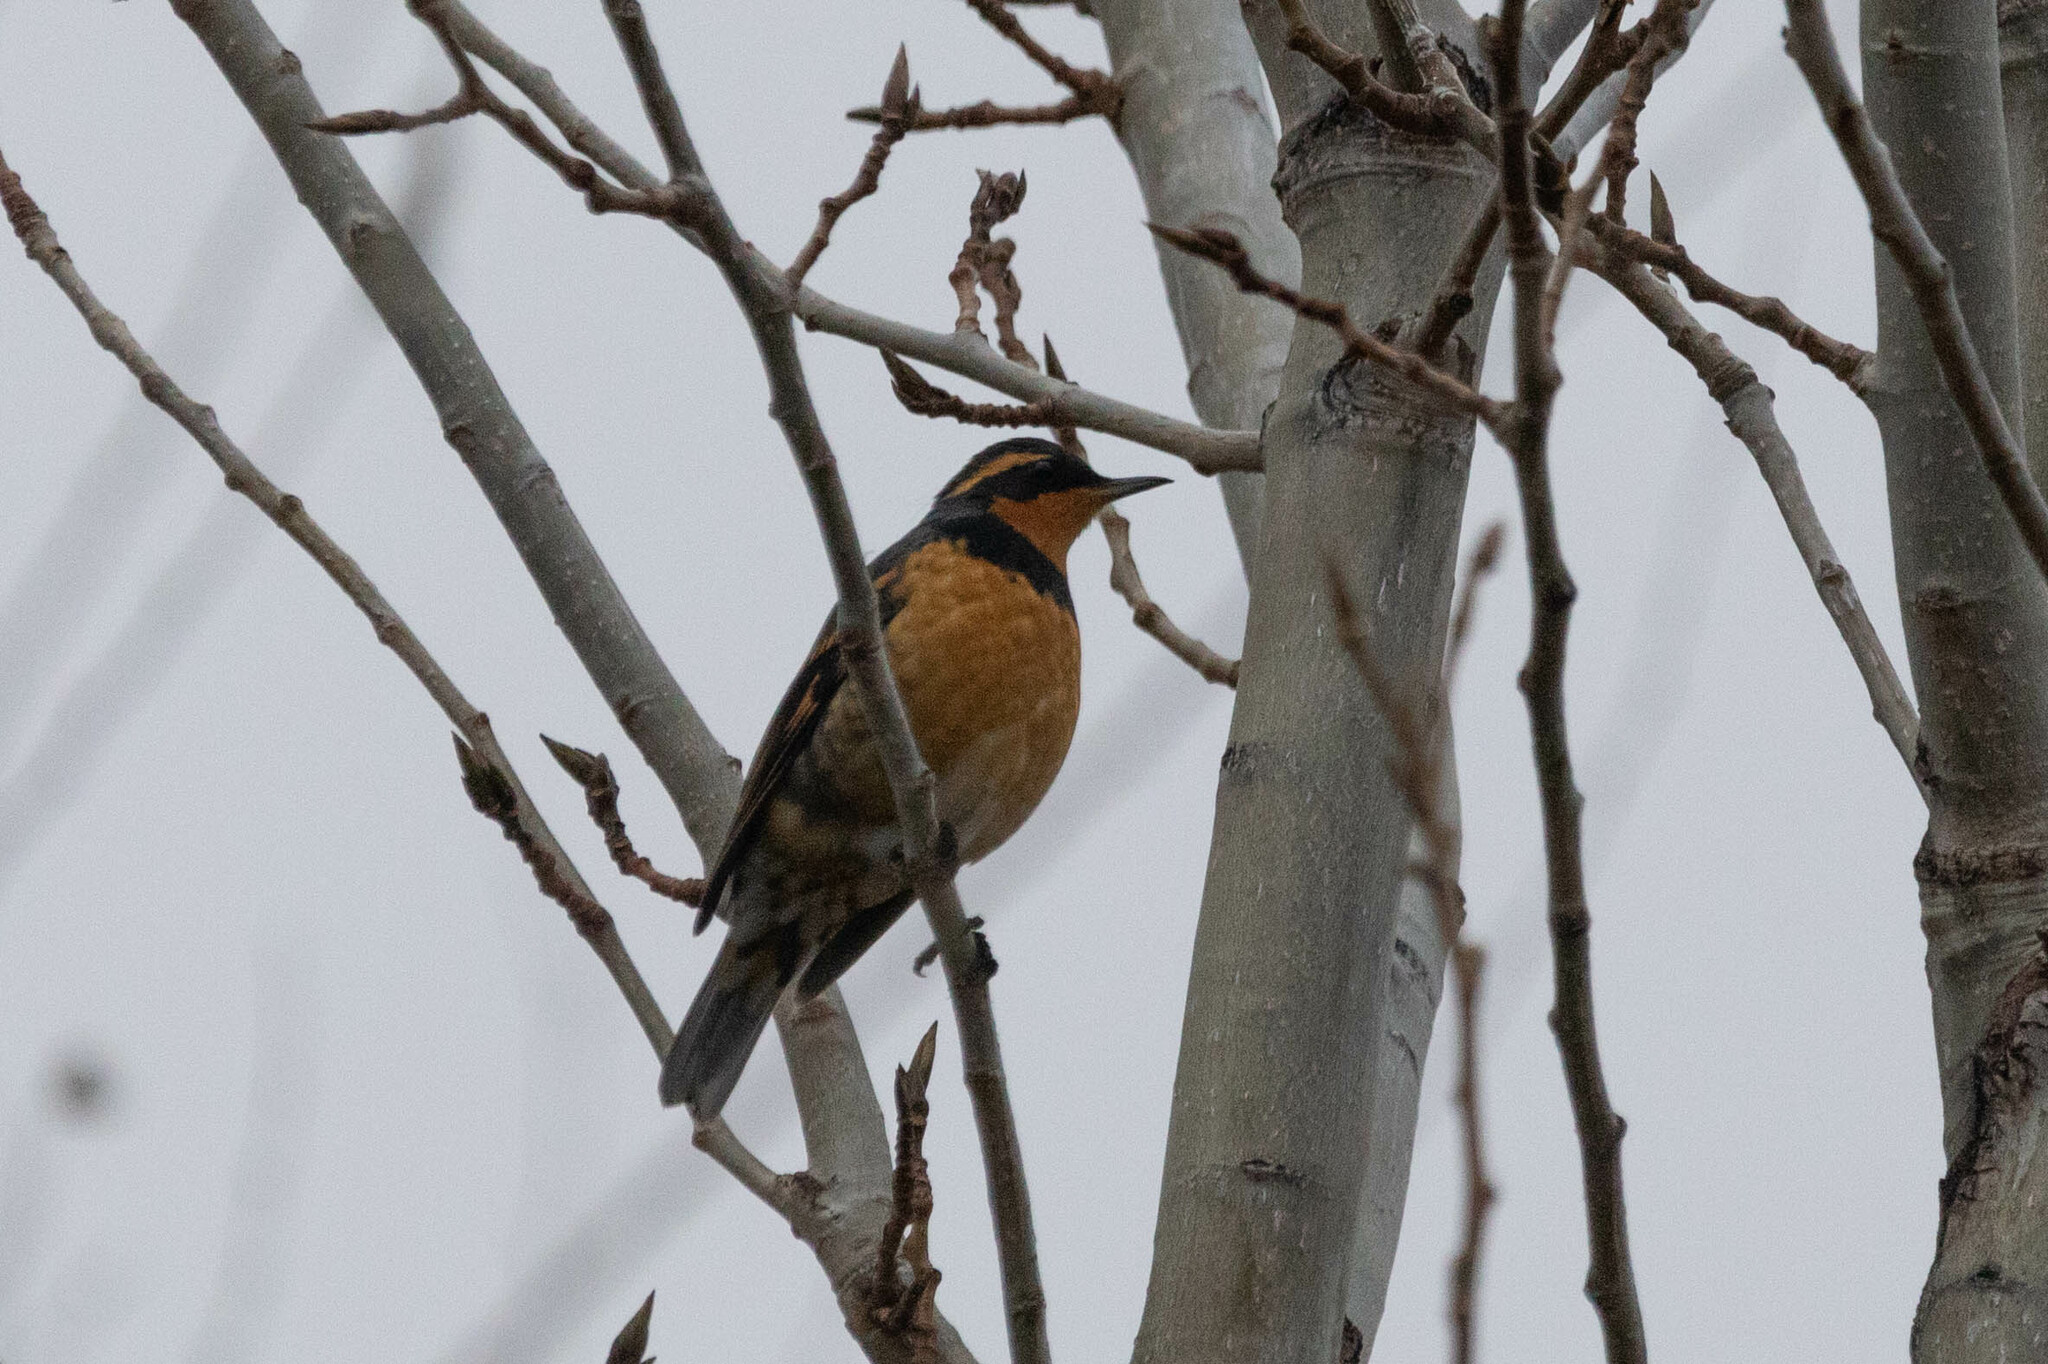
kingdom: Animalia
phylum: Chordata
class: Aves
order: Passeriformes
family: Turdidae
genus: Ixoreus
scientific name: Ixoreus naevius
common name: Varied thrush
